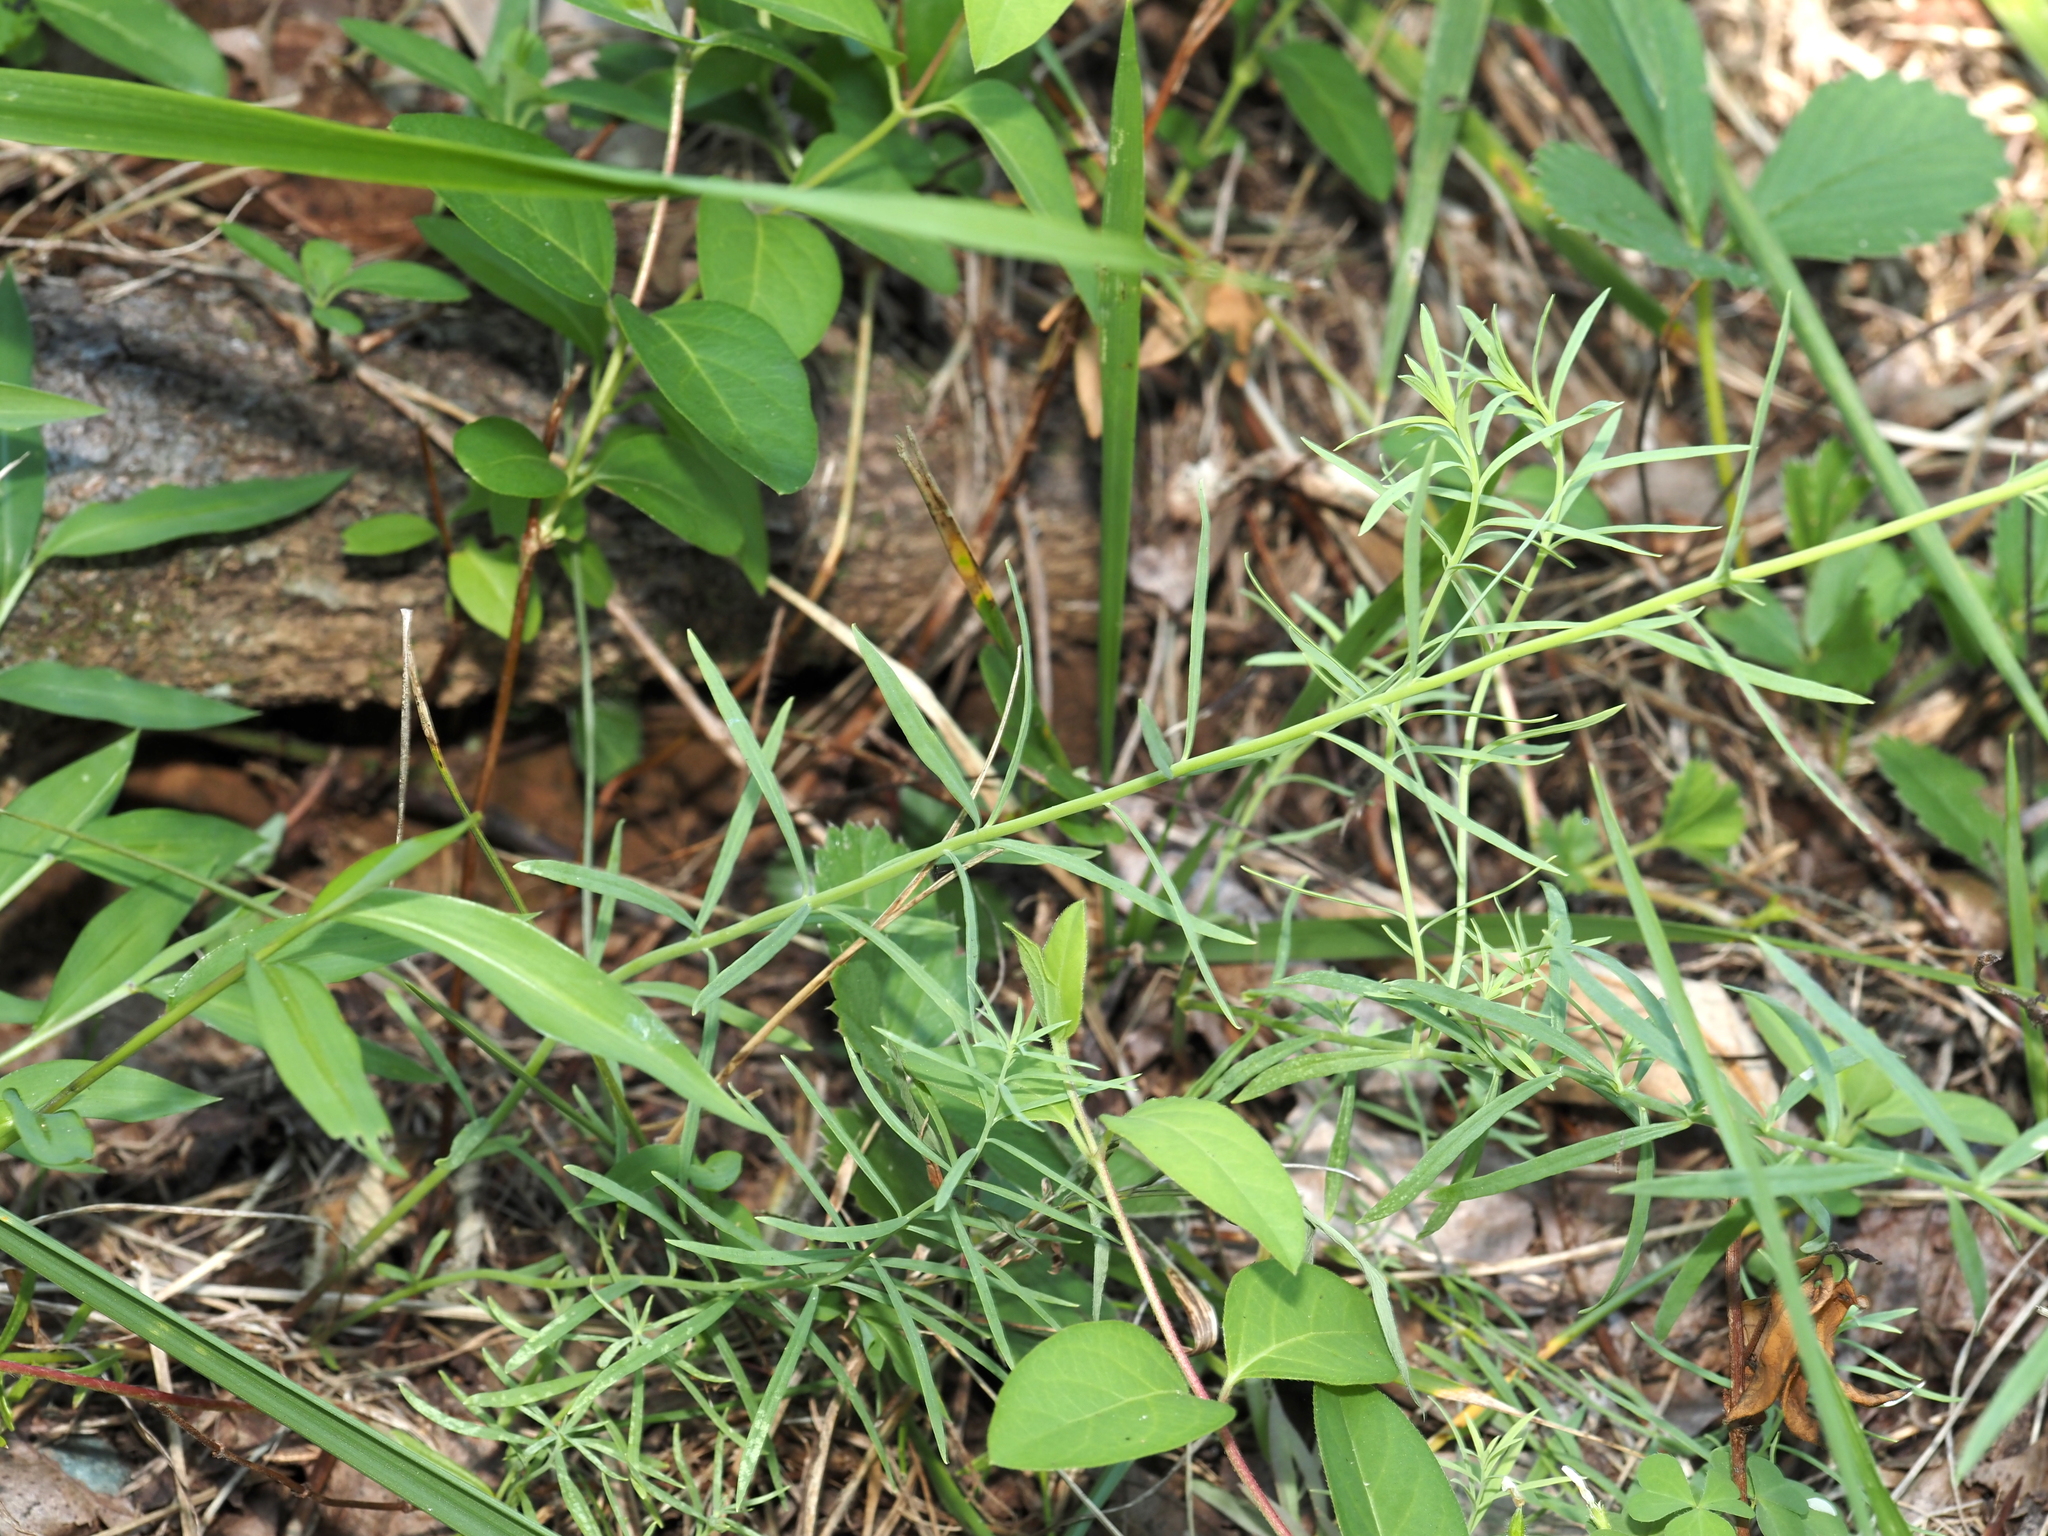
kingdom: Plantae
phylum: Tracheophyta
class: Magnoliopsida
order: Lamiales
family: Plantaginaceae
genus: Linaria
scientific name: Linaria vulgaris
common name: Butter and eggs
